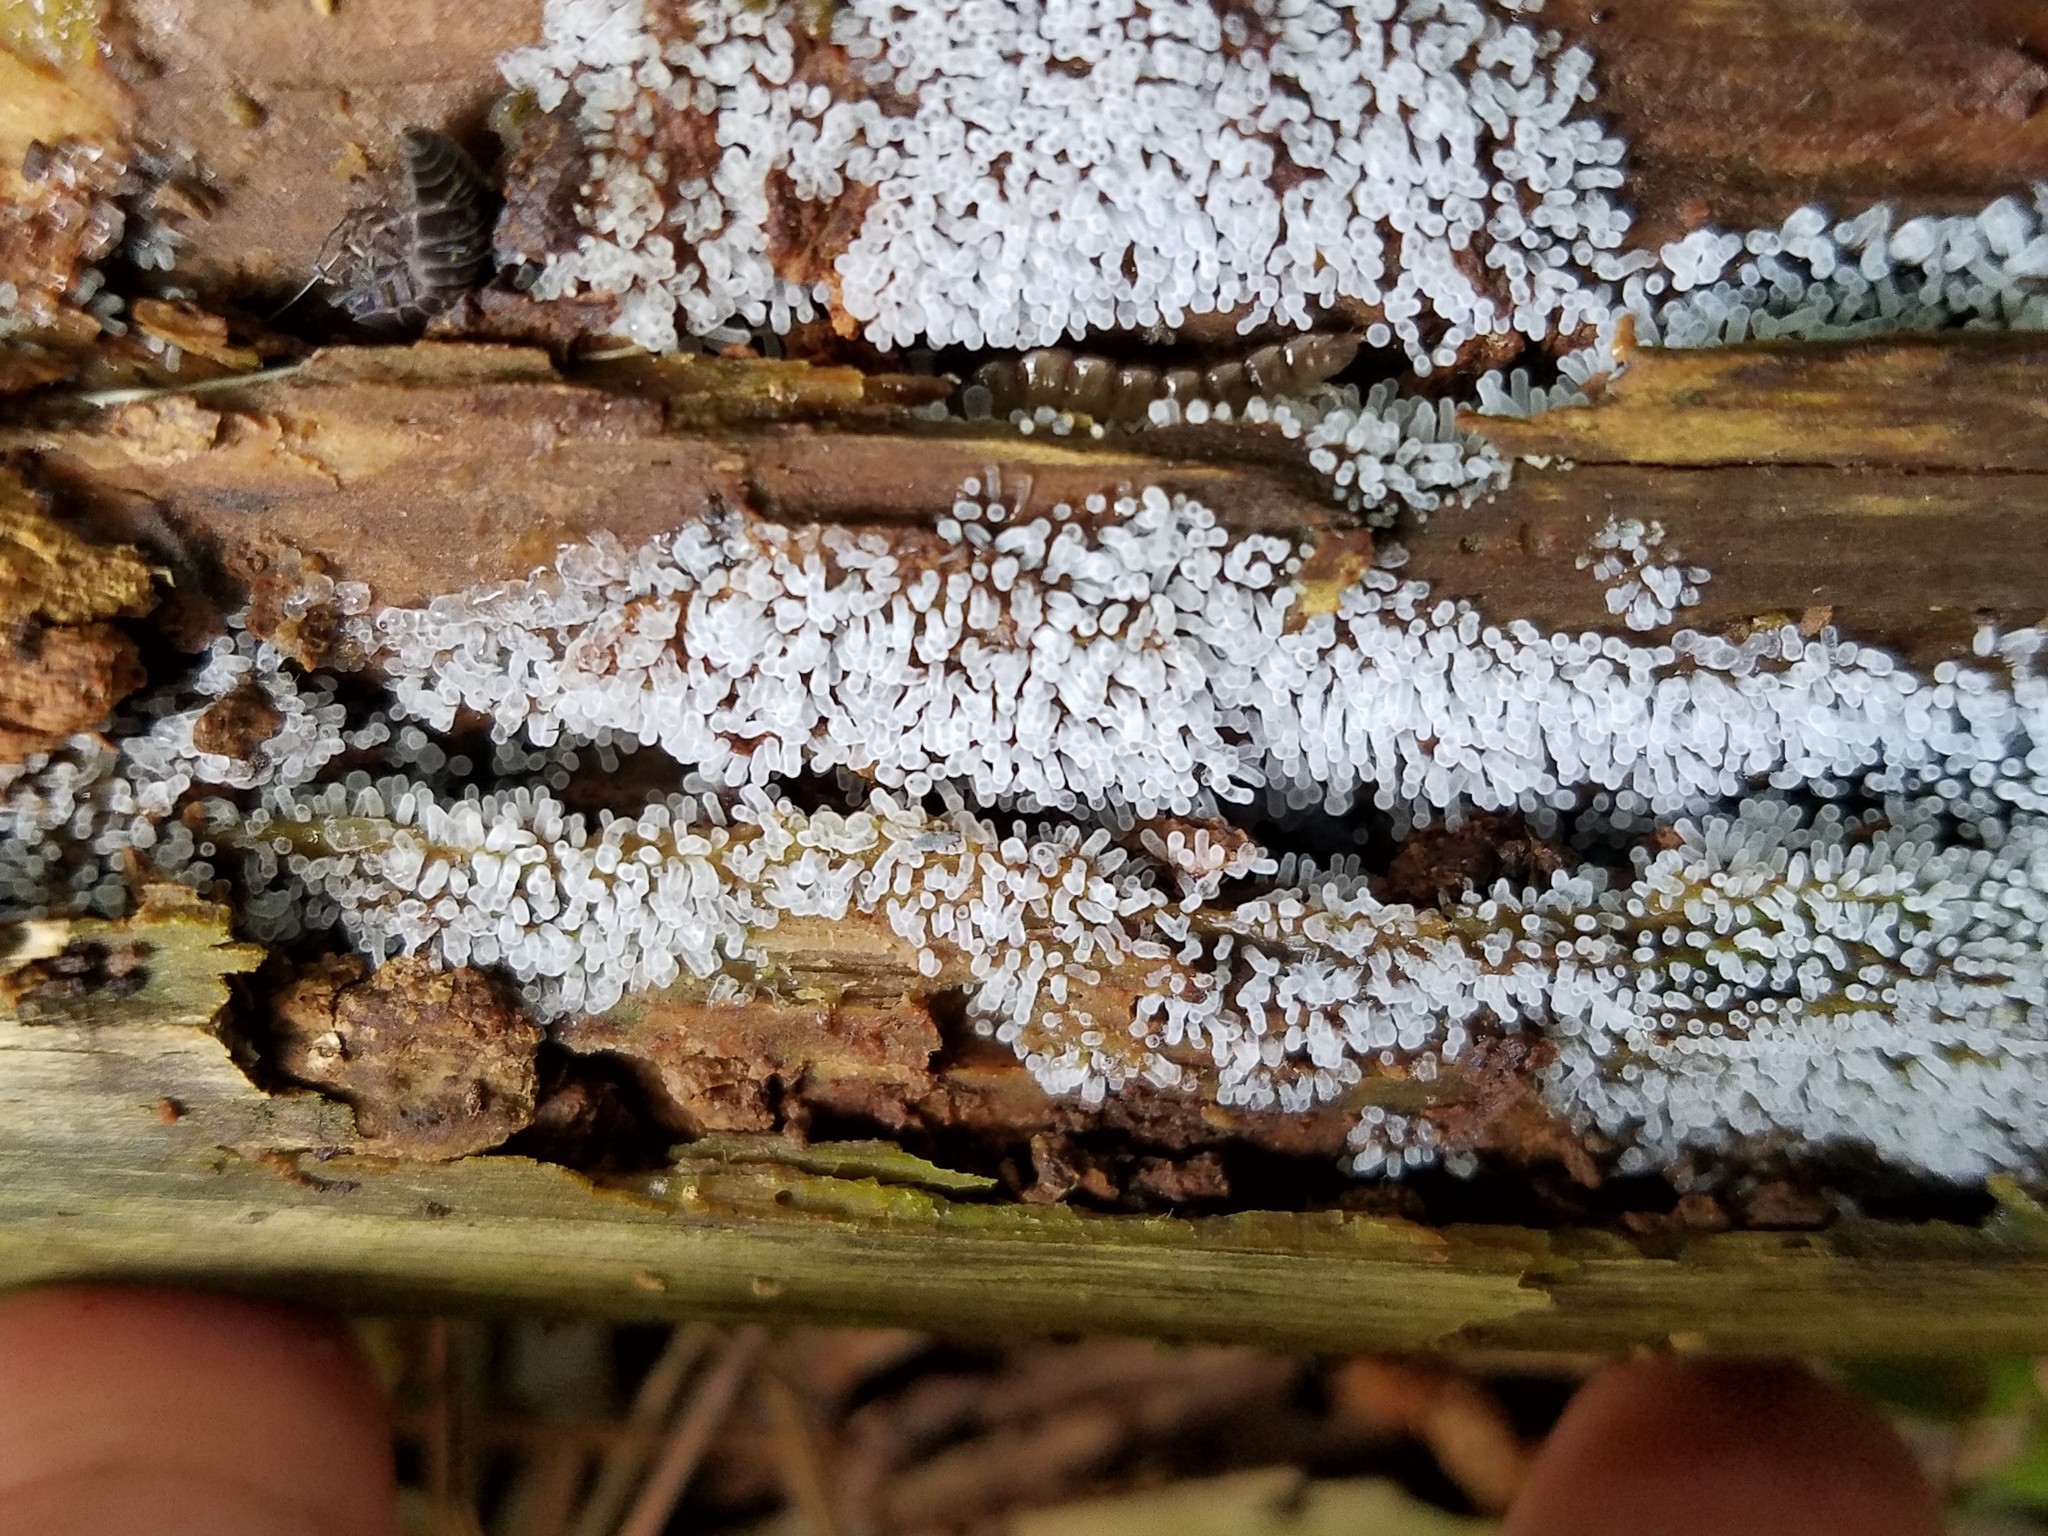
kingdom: Protozoa
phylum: Mycetozoa
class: Protosteliomycetes
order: Ceratiomyxales
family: Ceratiomyxaceae
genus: Ceratiomyxa
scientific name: Ceratiomyxa fruticulosa
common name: Honeycomb coral slime mold
